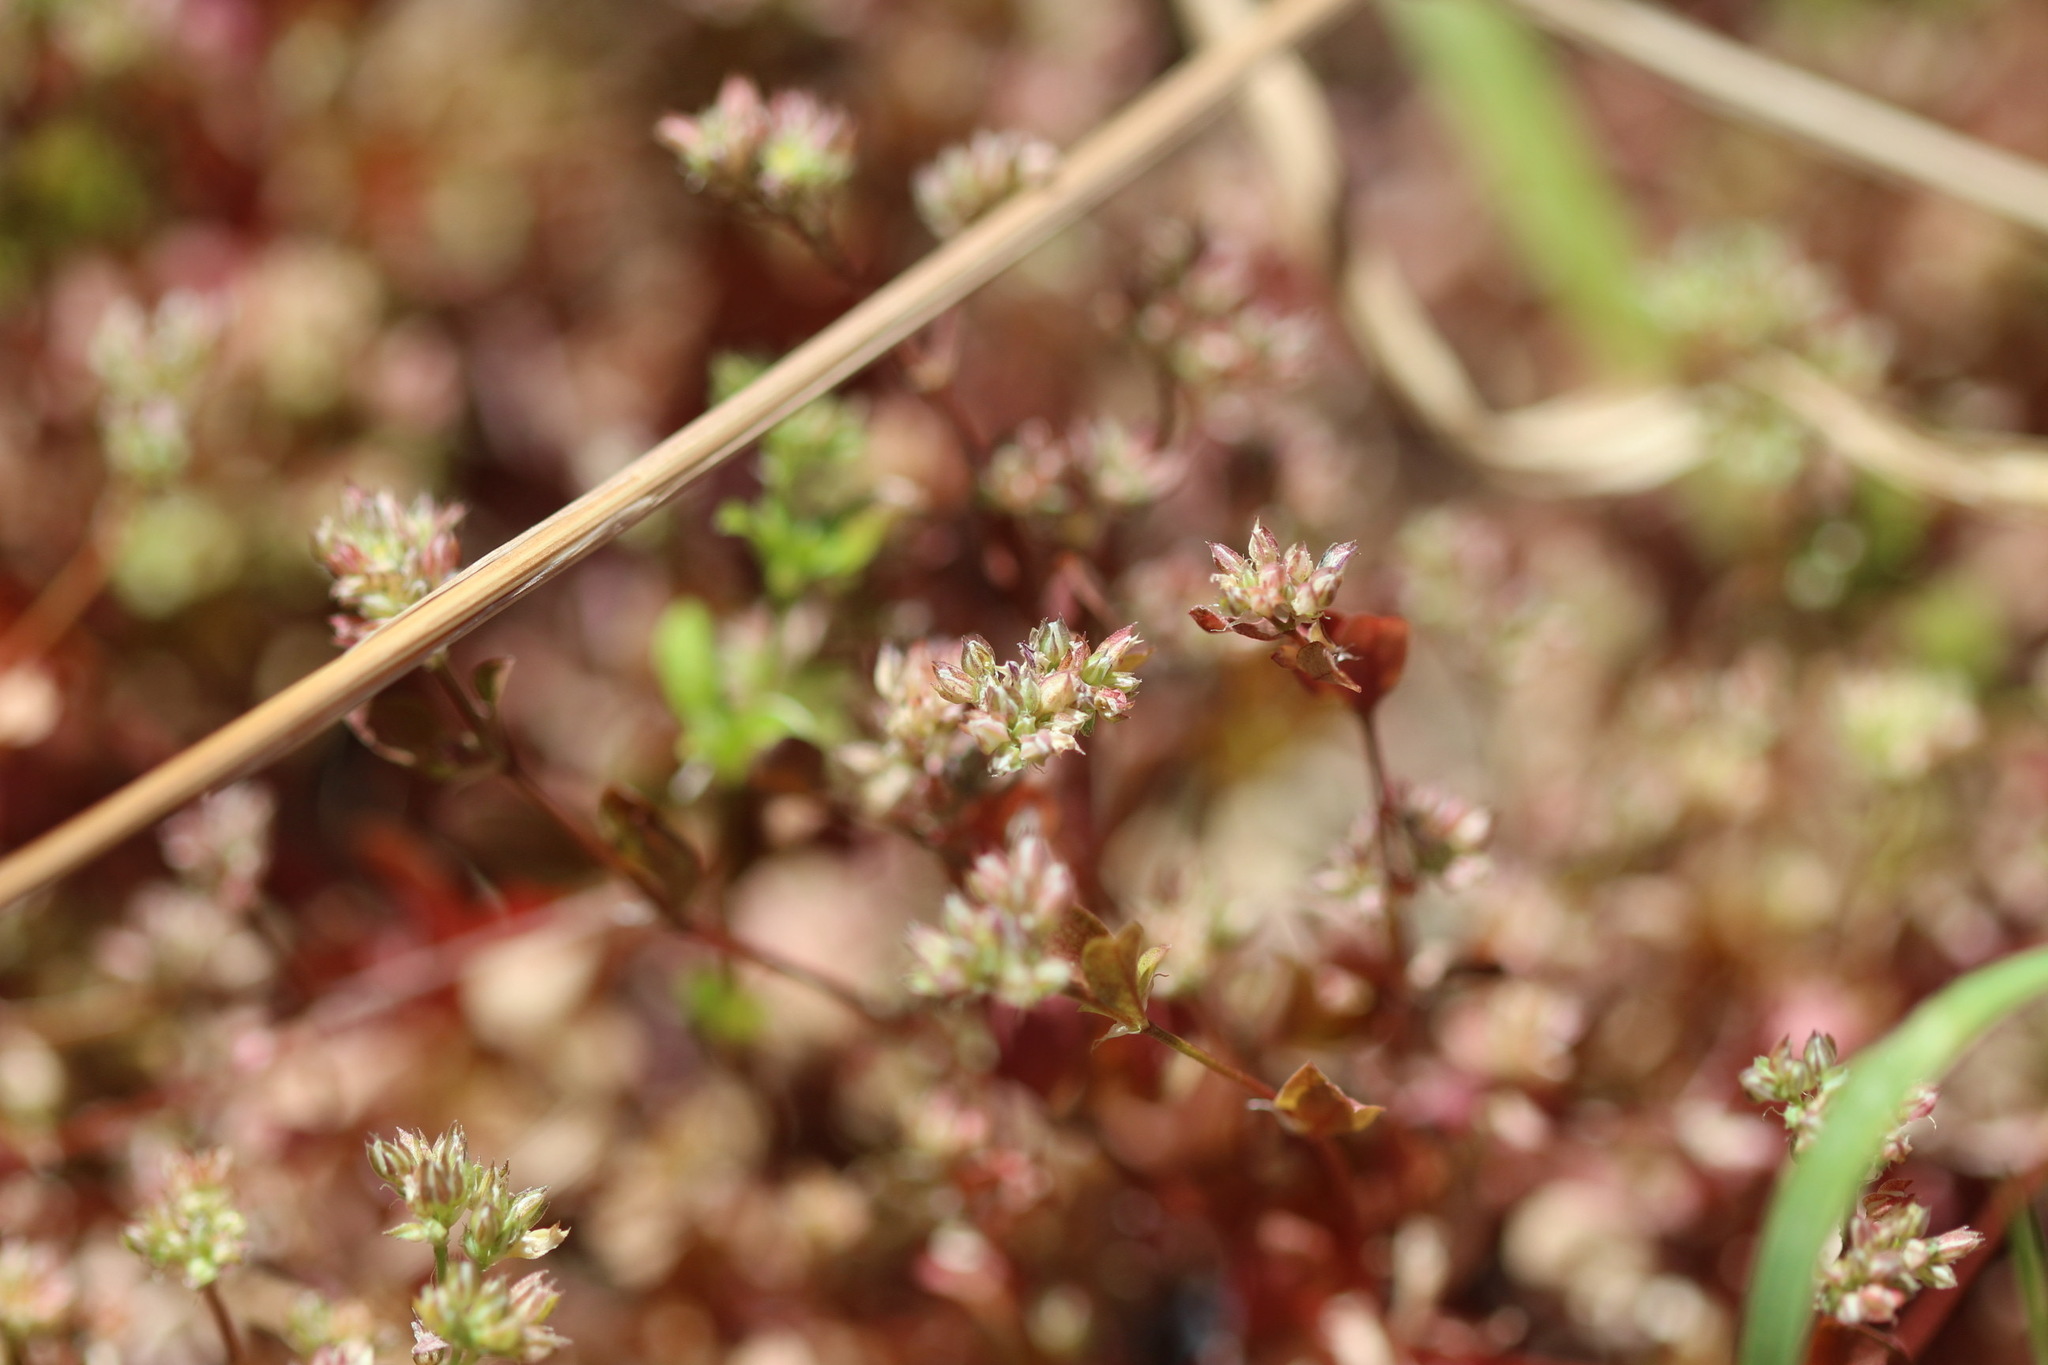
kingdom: Plantae
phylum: Tracheophyta
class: Magnoliopsida
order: Caryophyllales
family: Caryophyllaceae
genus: Polycarpon
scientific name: Polycarpon tetraphyllum
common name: Four-leaved all-seed
